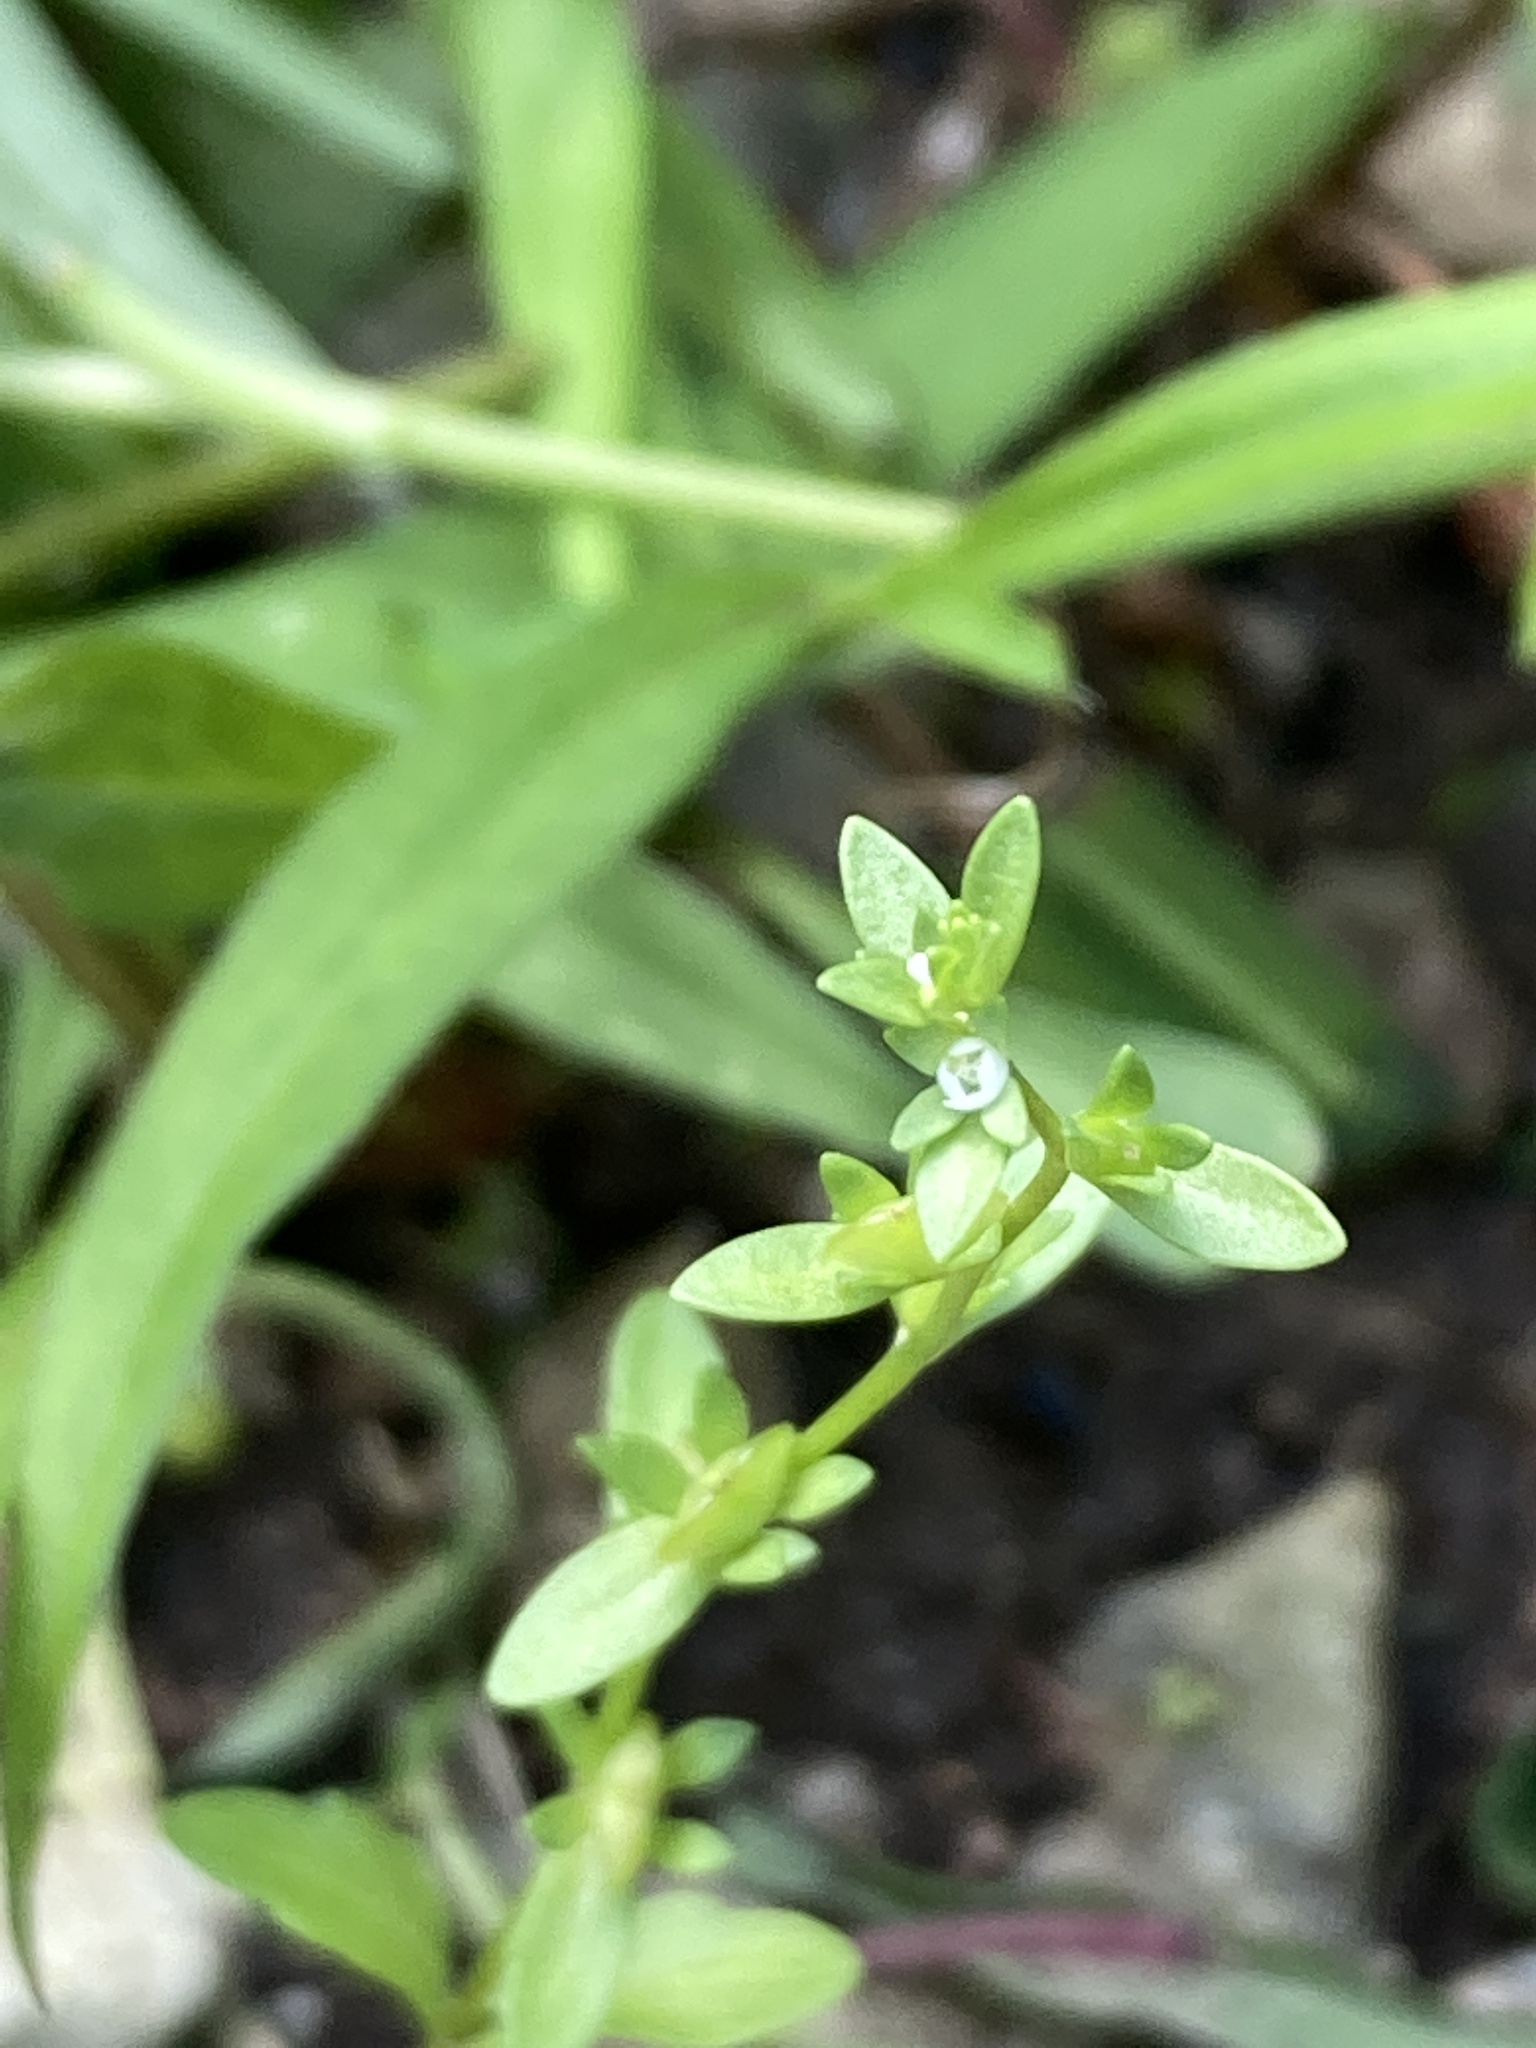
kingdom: Plantae
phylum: Tracheophyta
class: Magnoliopsida
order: Lamiales
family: Plantaginaceae
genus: Veronica
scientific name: Veronica peregrina
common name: Neckweed
